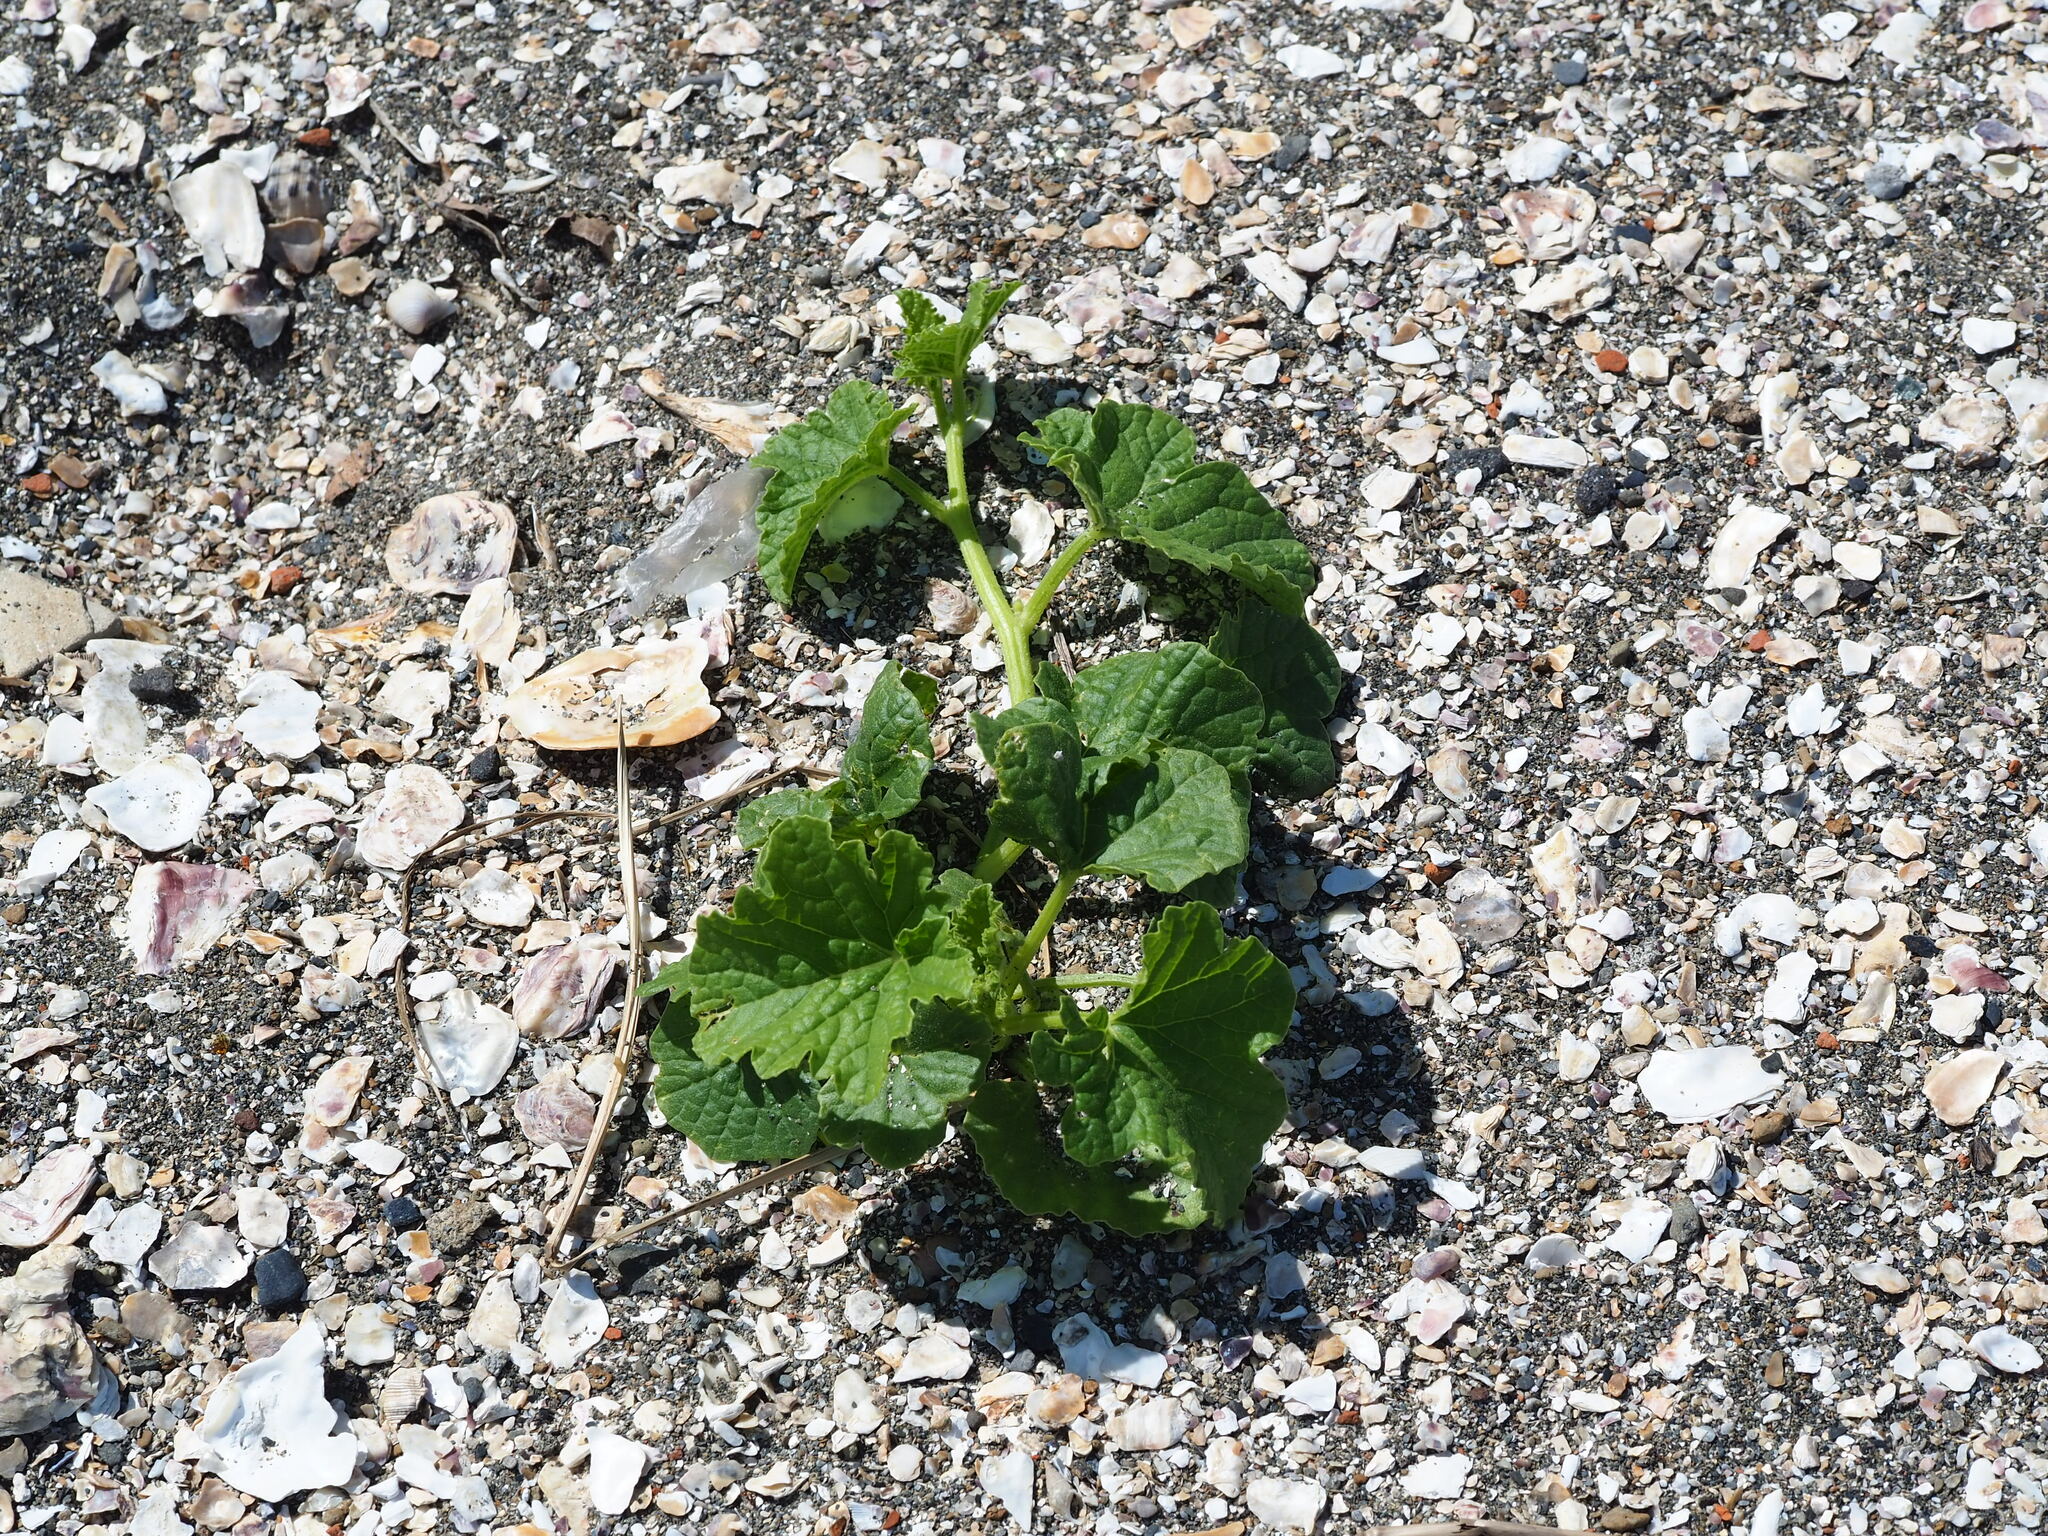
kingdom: Plantae
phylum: Tracheophyta
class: Magnoliopsida
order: Cucurbitales
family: Cucurbitaceae
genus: Cucumis
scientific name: Cucumis melo
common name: Melon
